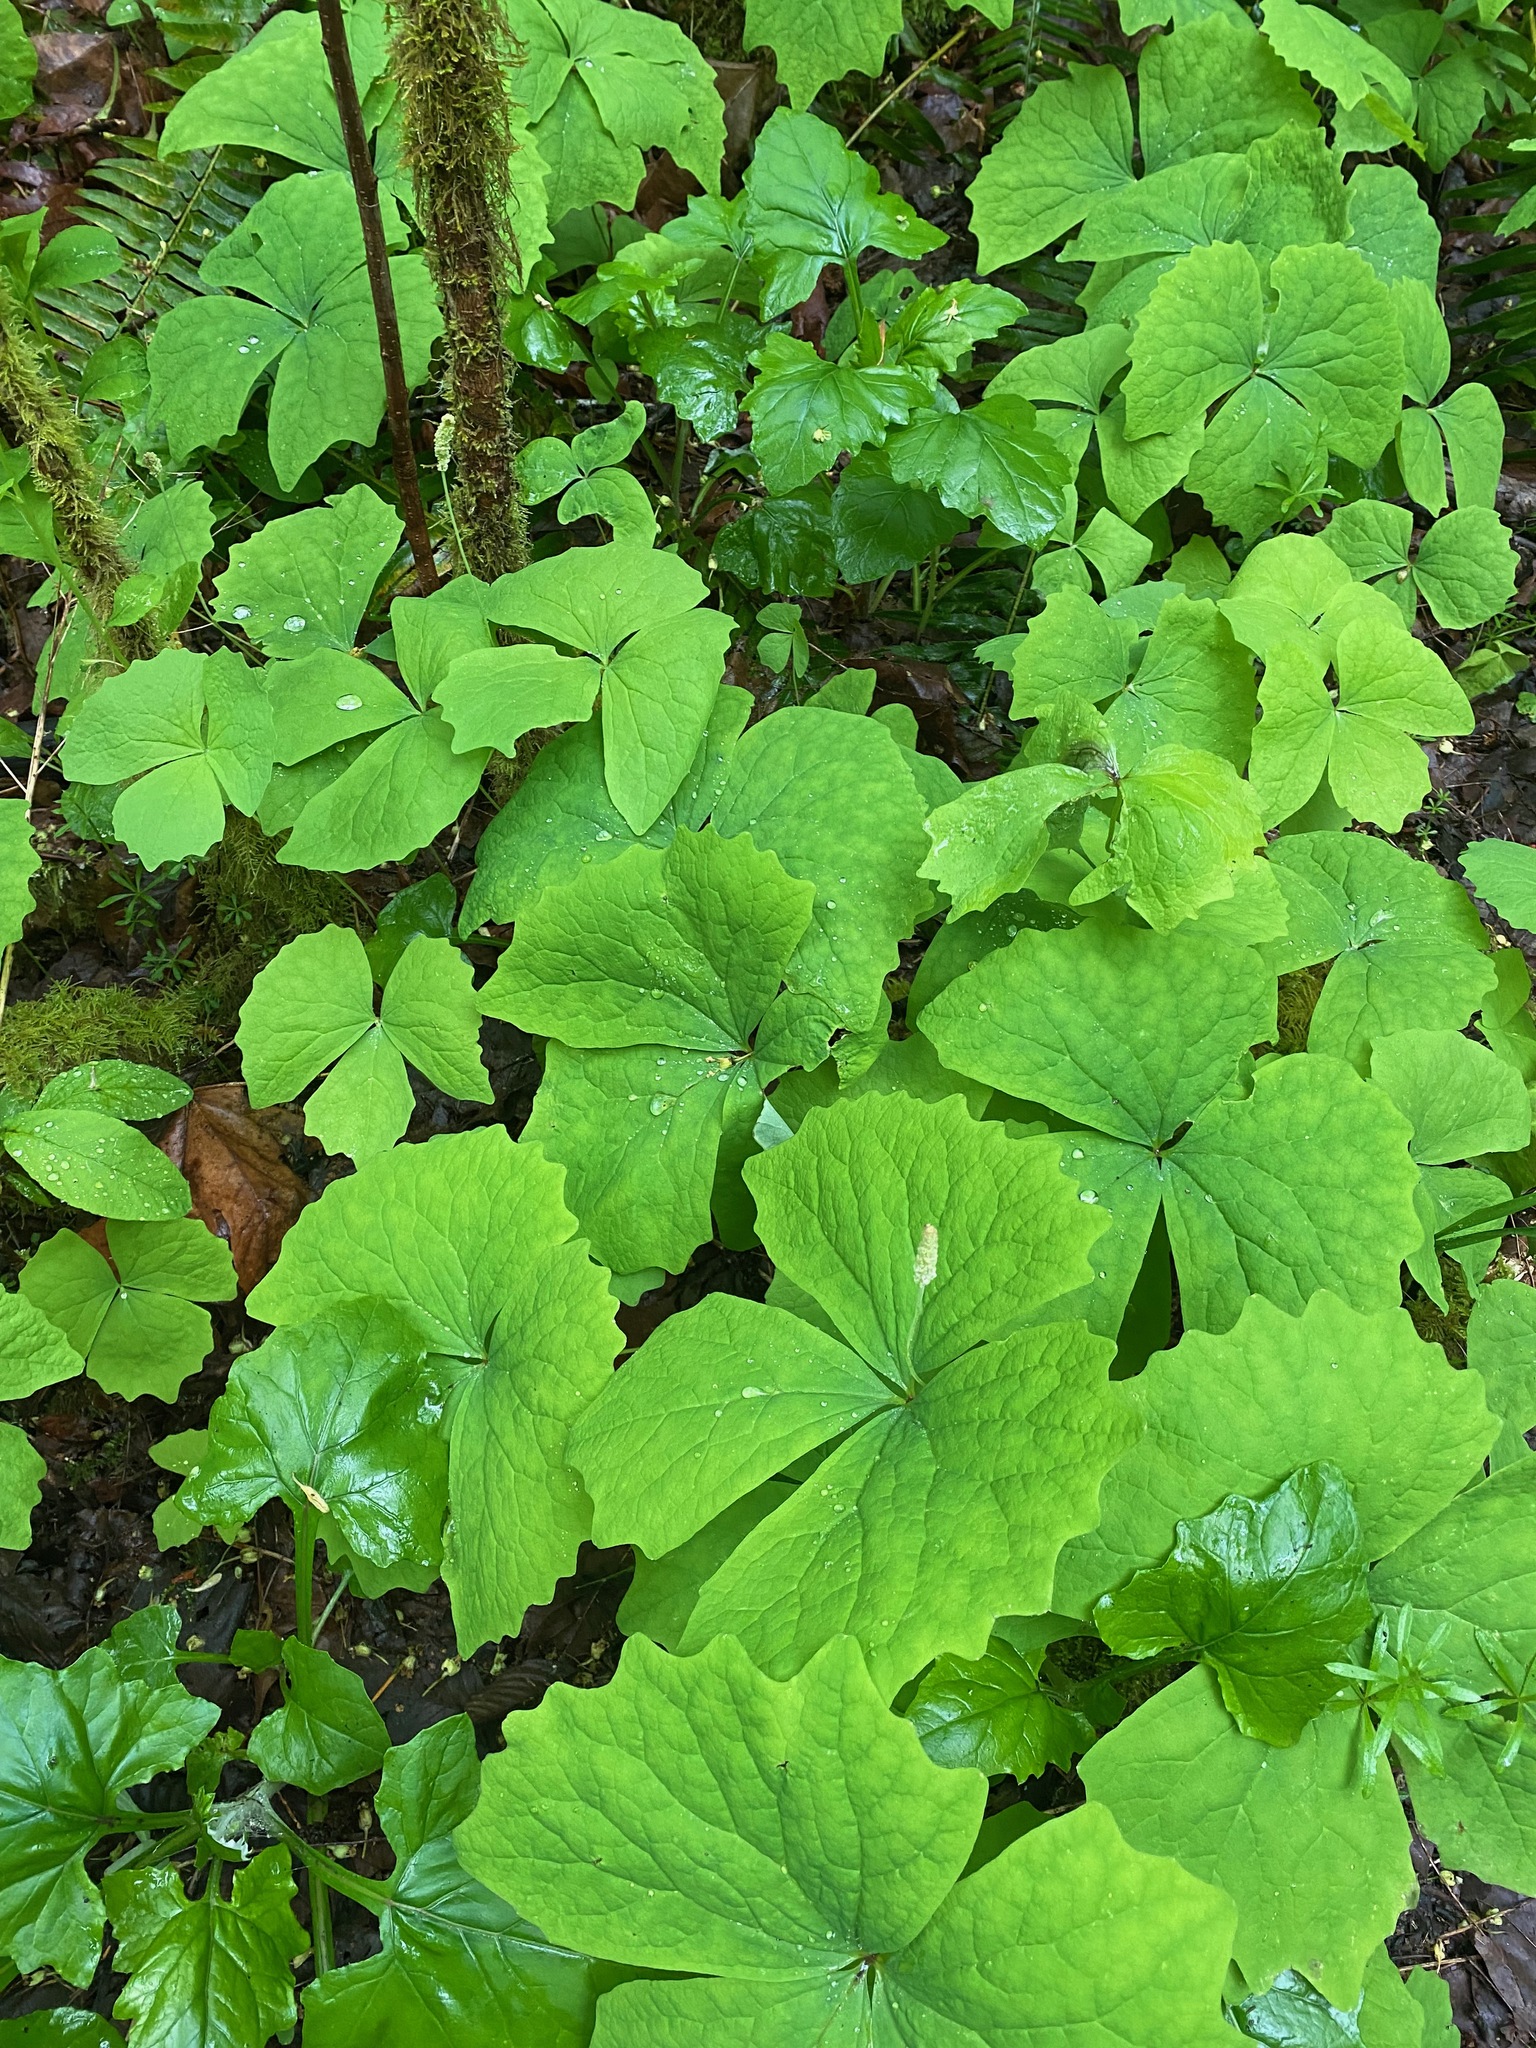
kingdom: Plantae
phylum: Tracheophyta
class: Magnoliopsida
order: Ranunculales
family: Berberidaceae
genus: Achlys
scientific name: Achlys triphylla
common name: Vanilla-leaf
